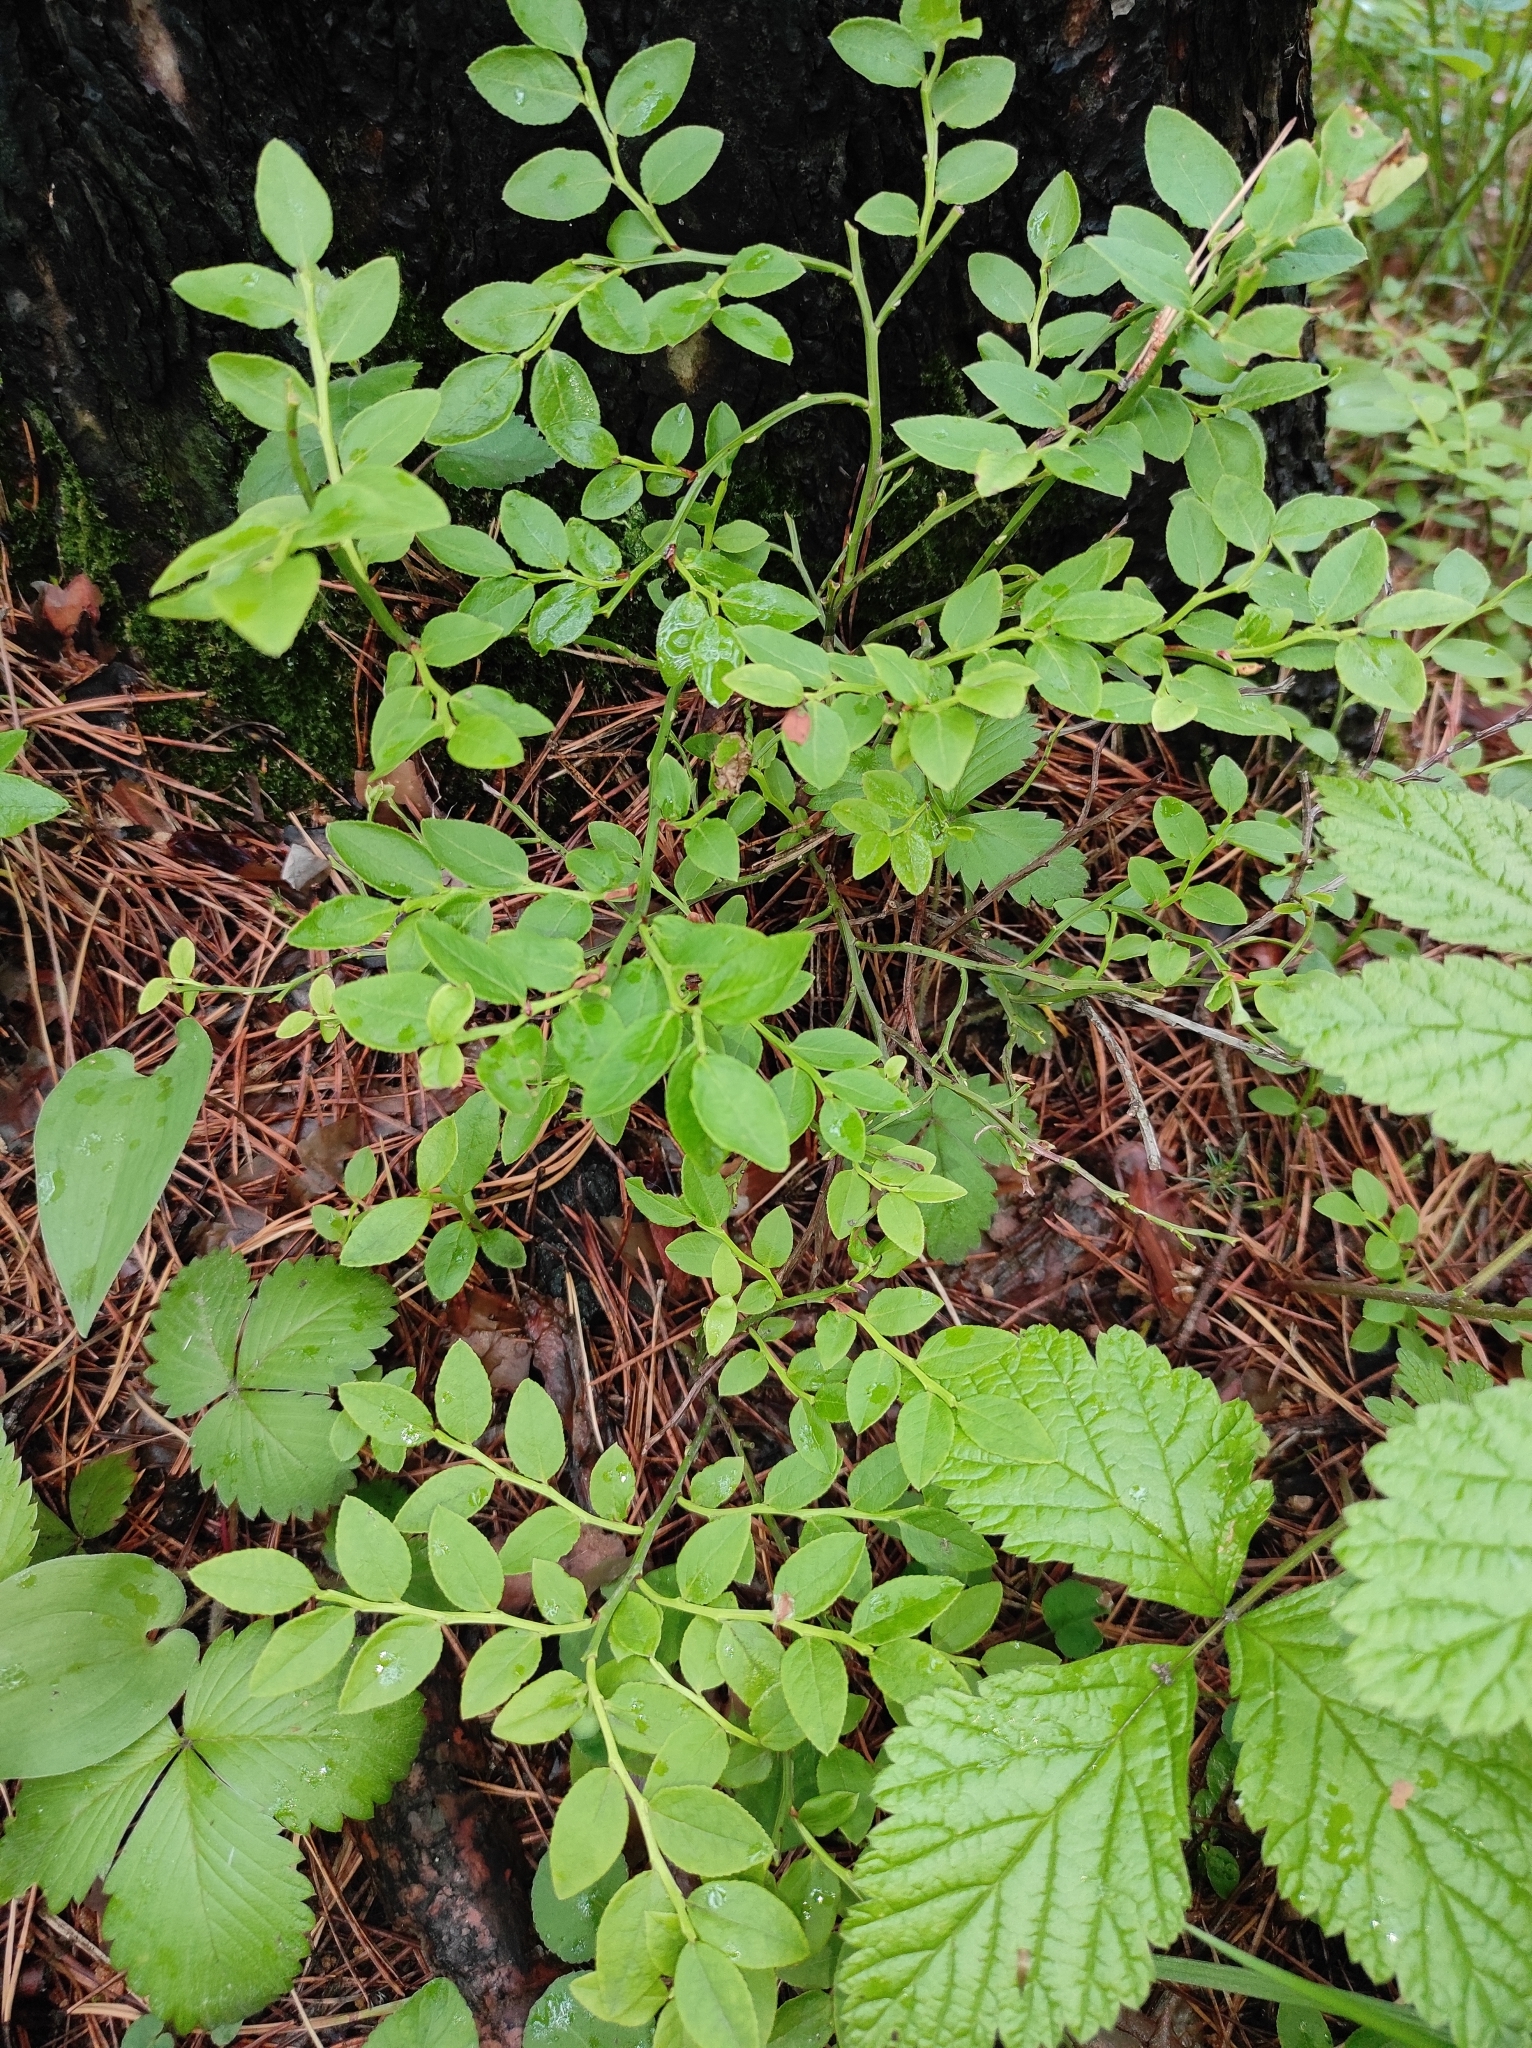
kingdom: Plantae
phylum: Tracheophyta
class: Magnoliopsida
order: Ericales
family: Ericaceae
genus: Vaccinium
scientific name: Vaccinium myrtillus
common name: Bilberry
